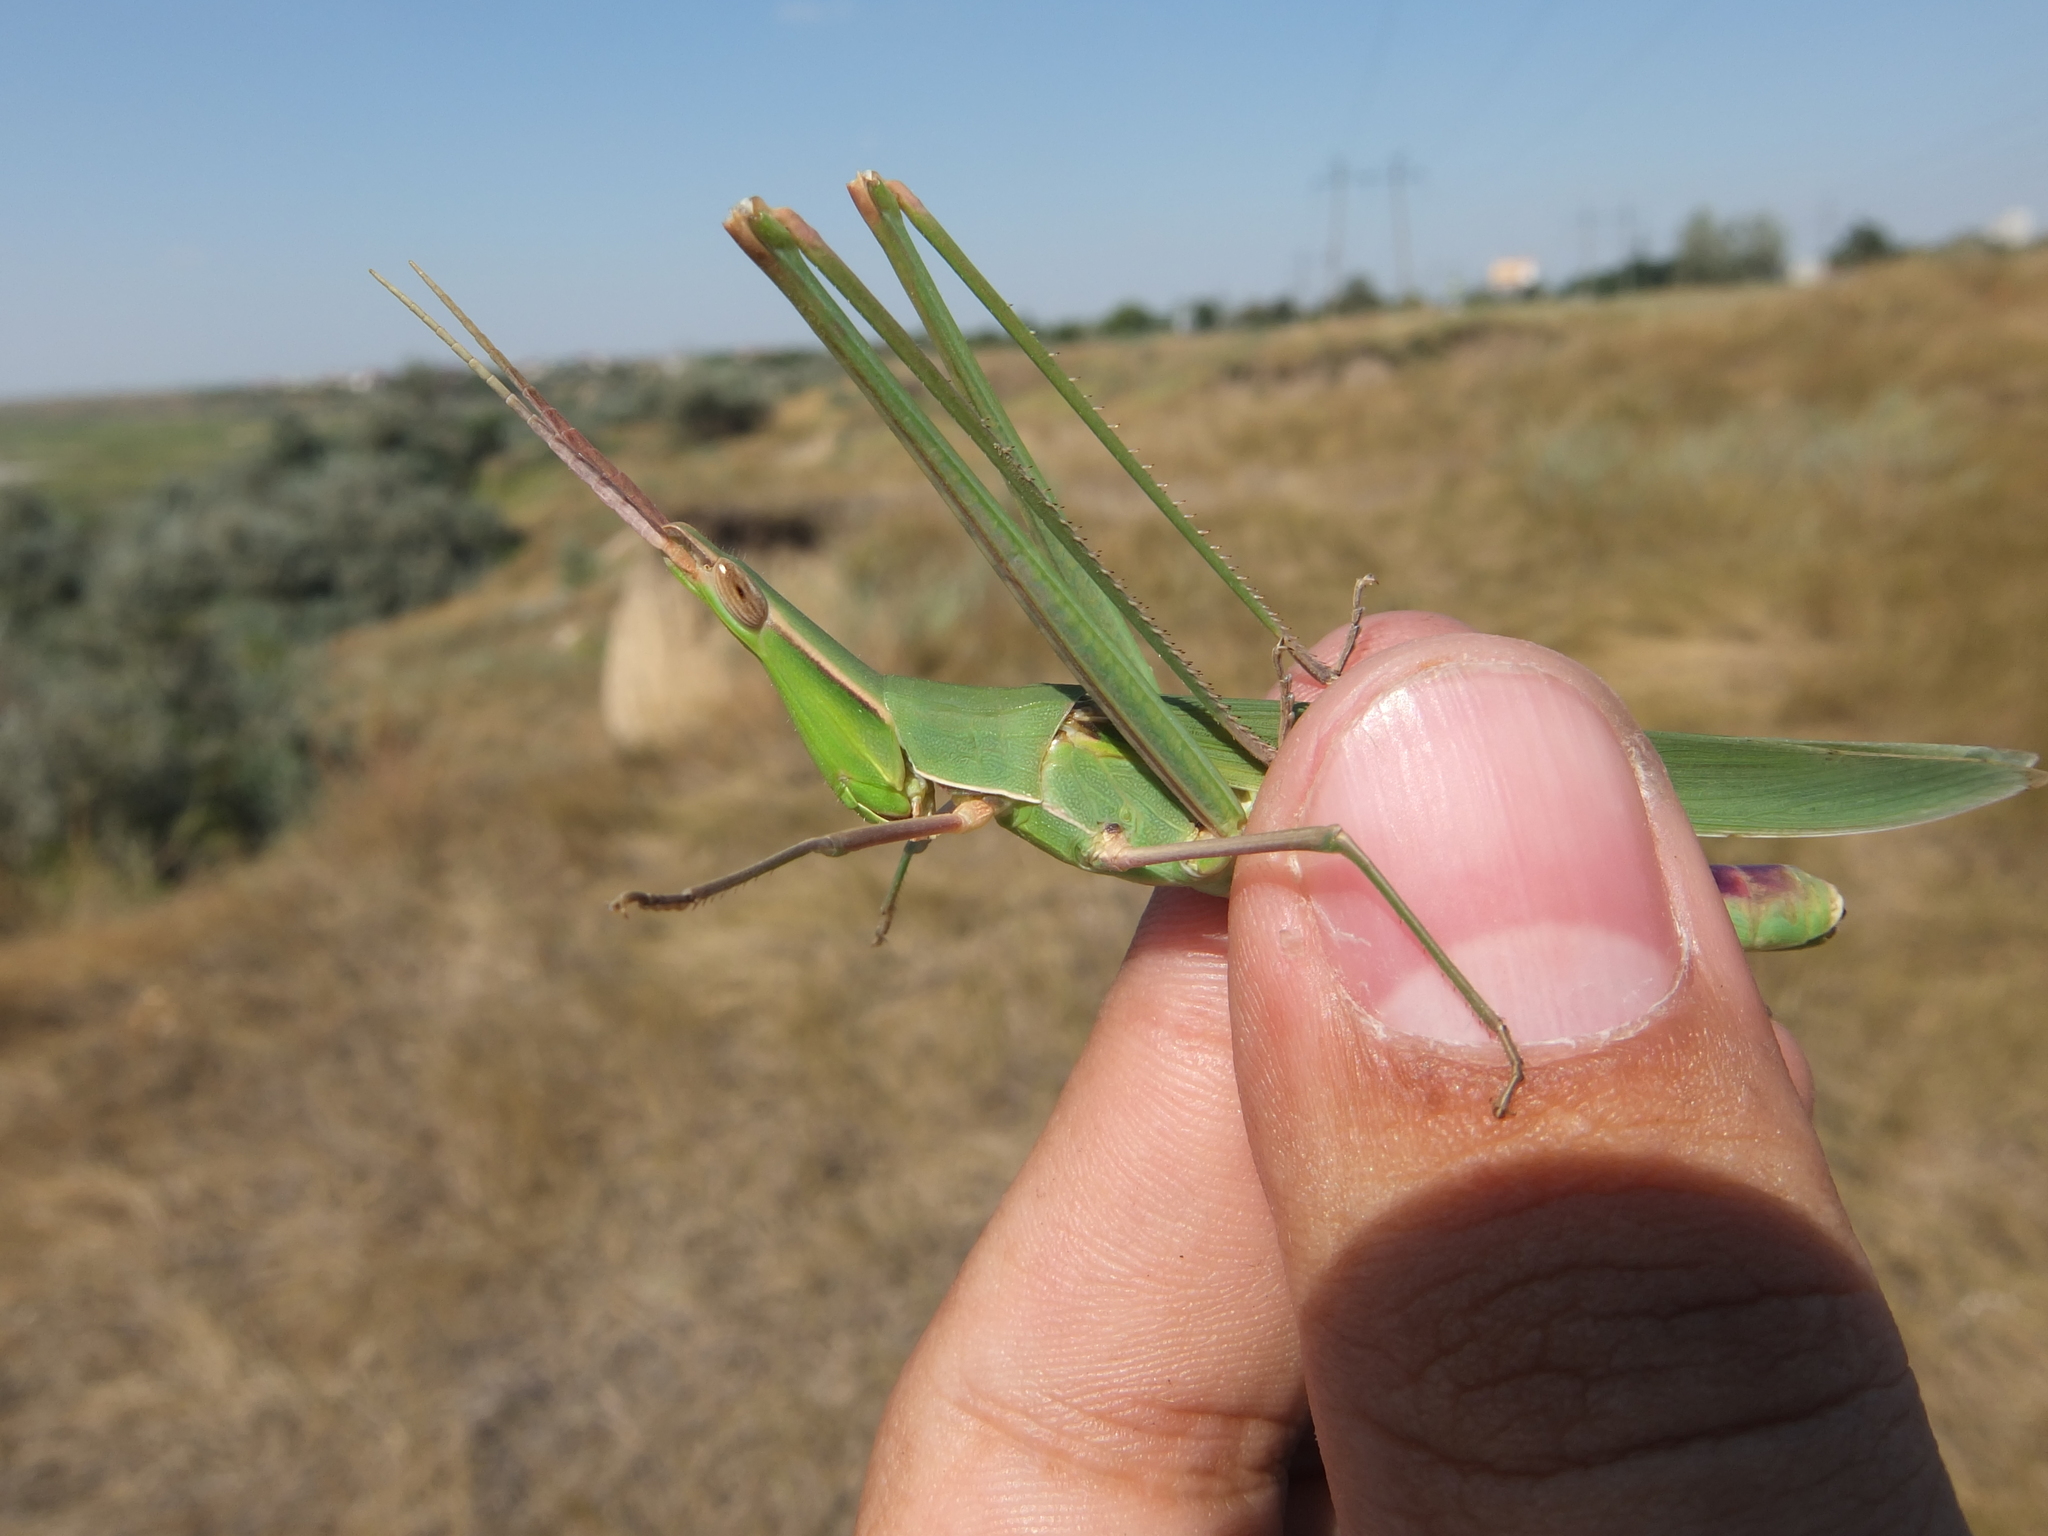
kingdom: Animalia
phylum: Arthropoda
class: Insecta
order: Orthoptera
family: Acrididae
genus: Acrida
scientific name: Acrida ungarica
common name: Common cone-headed grasshopper
